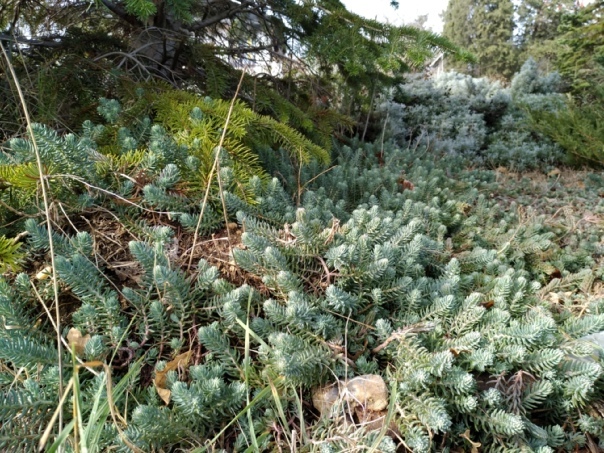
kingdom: Plantae
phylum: Tracheophyta
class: Magnoliopsida
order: Saxifragales
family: Crassulaceae
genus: Petrosedum
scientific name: Petrosedum rupestre
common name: Jenny's stonecrop
